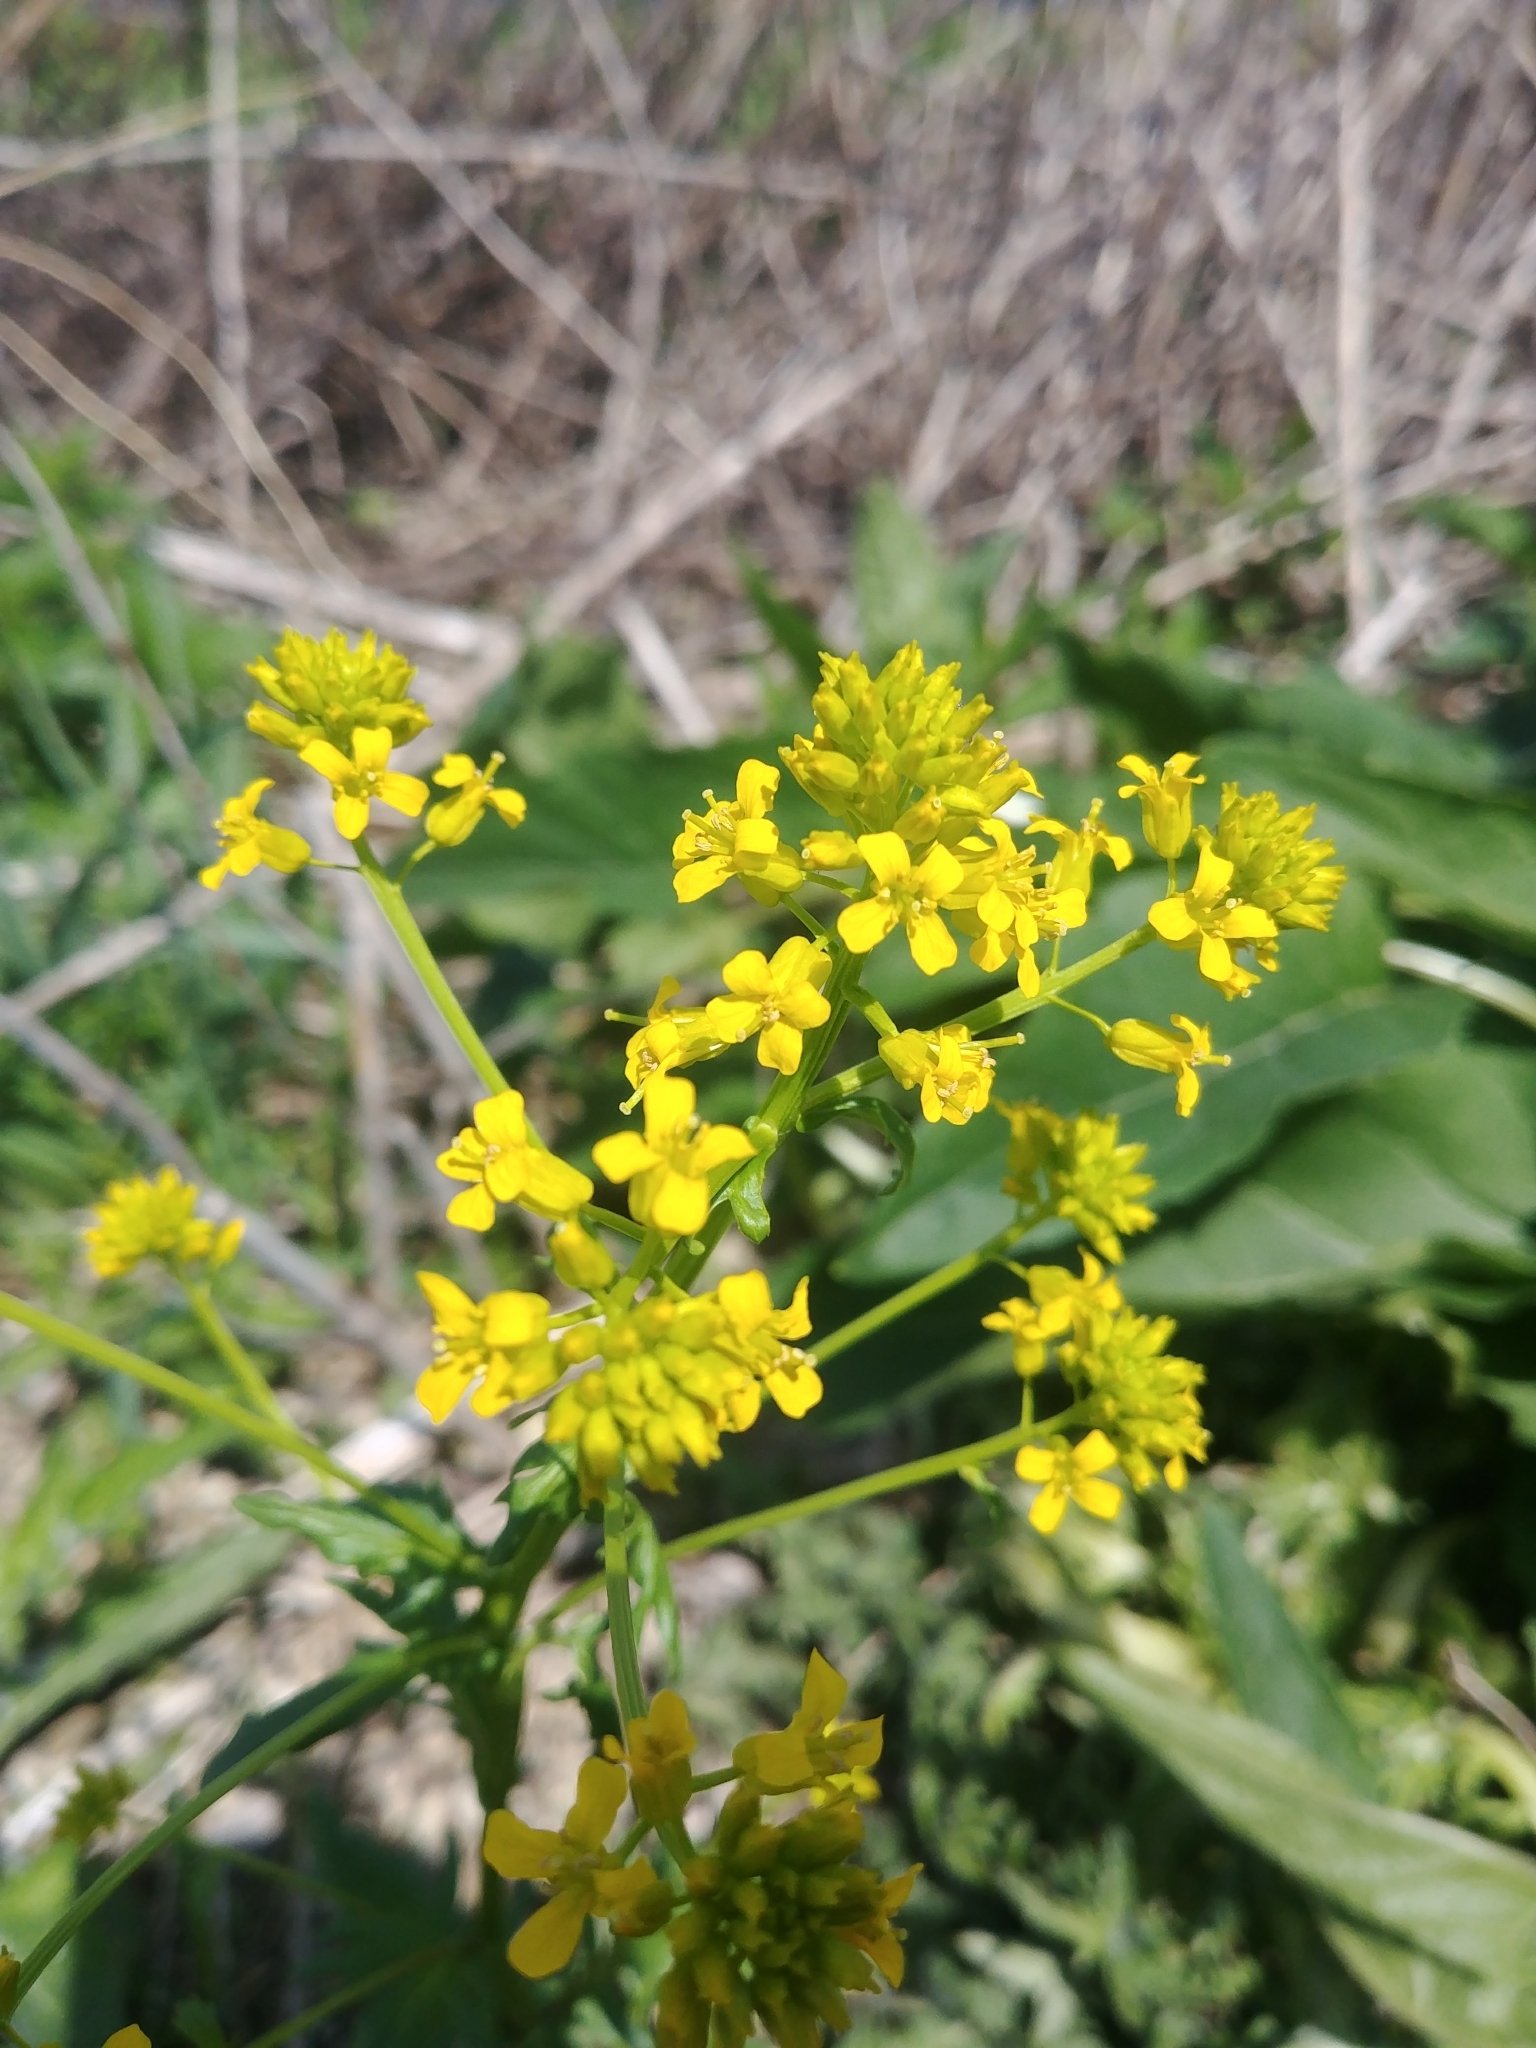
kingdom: Plantae
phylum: Tracheophyta
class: Magnoliopsida
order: Brassicales
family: Brassicaceae
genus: Barbarea
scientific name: Barbarea vulgaris
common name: Cressy-greens
